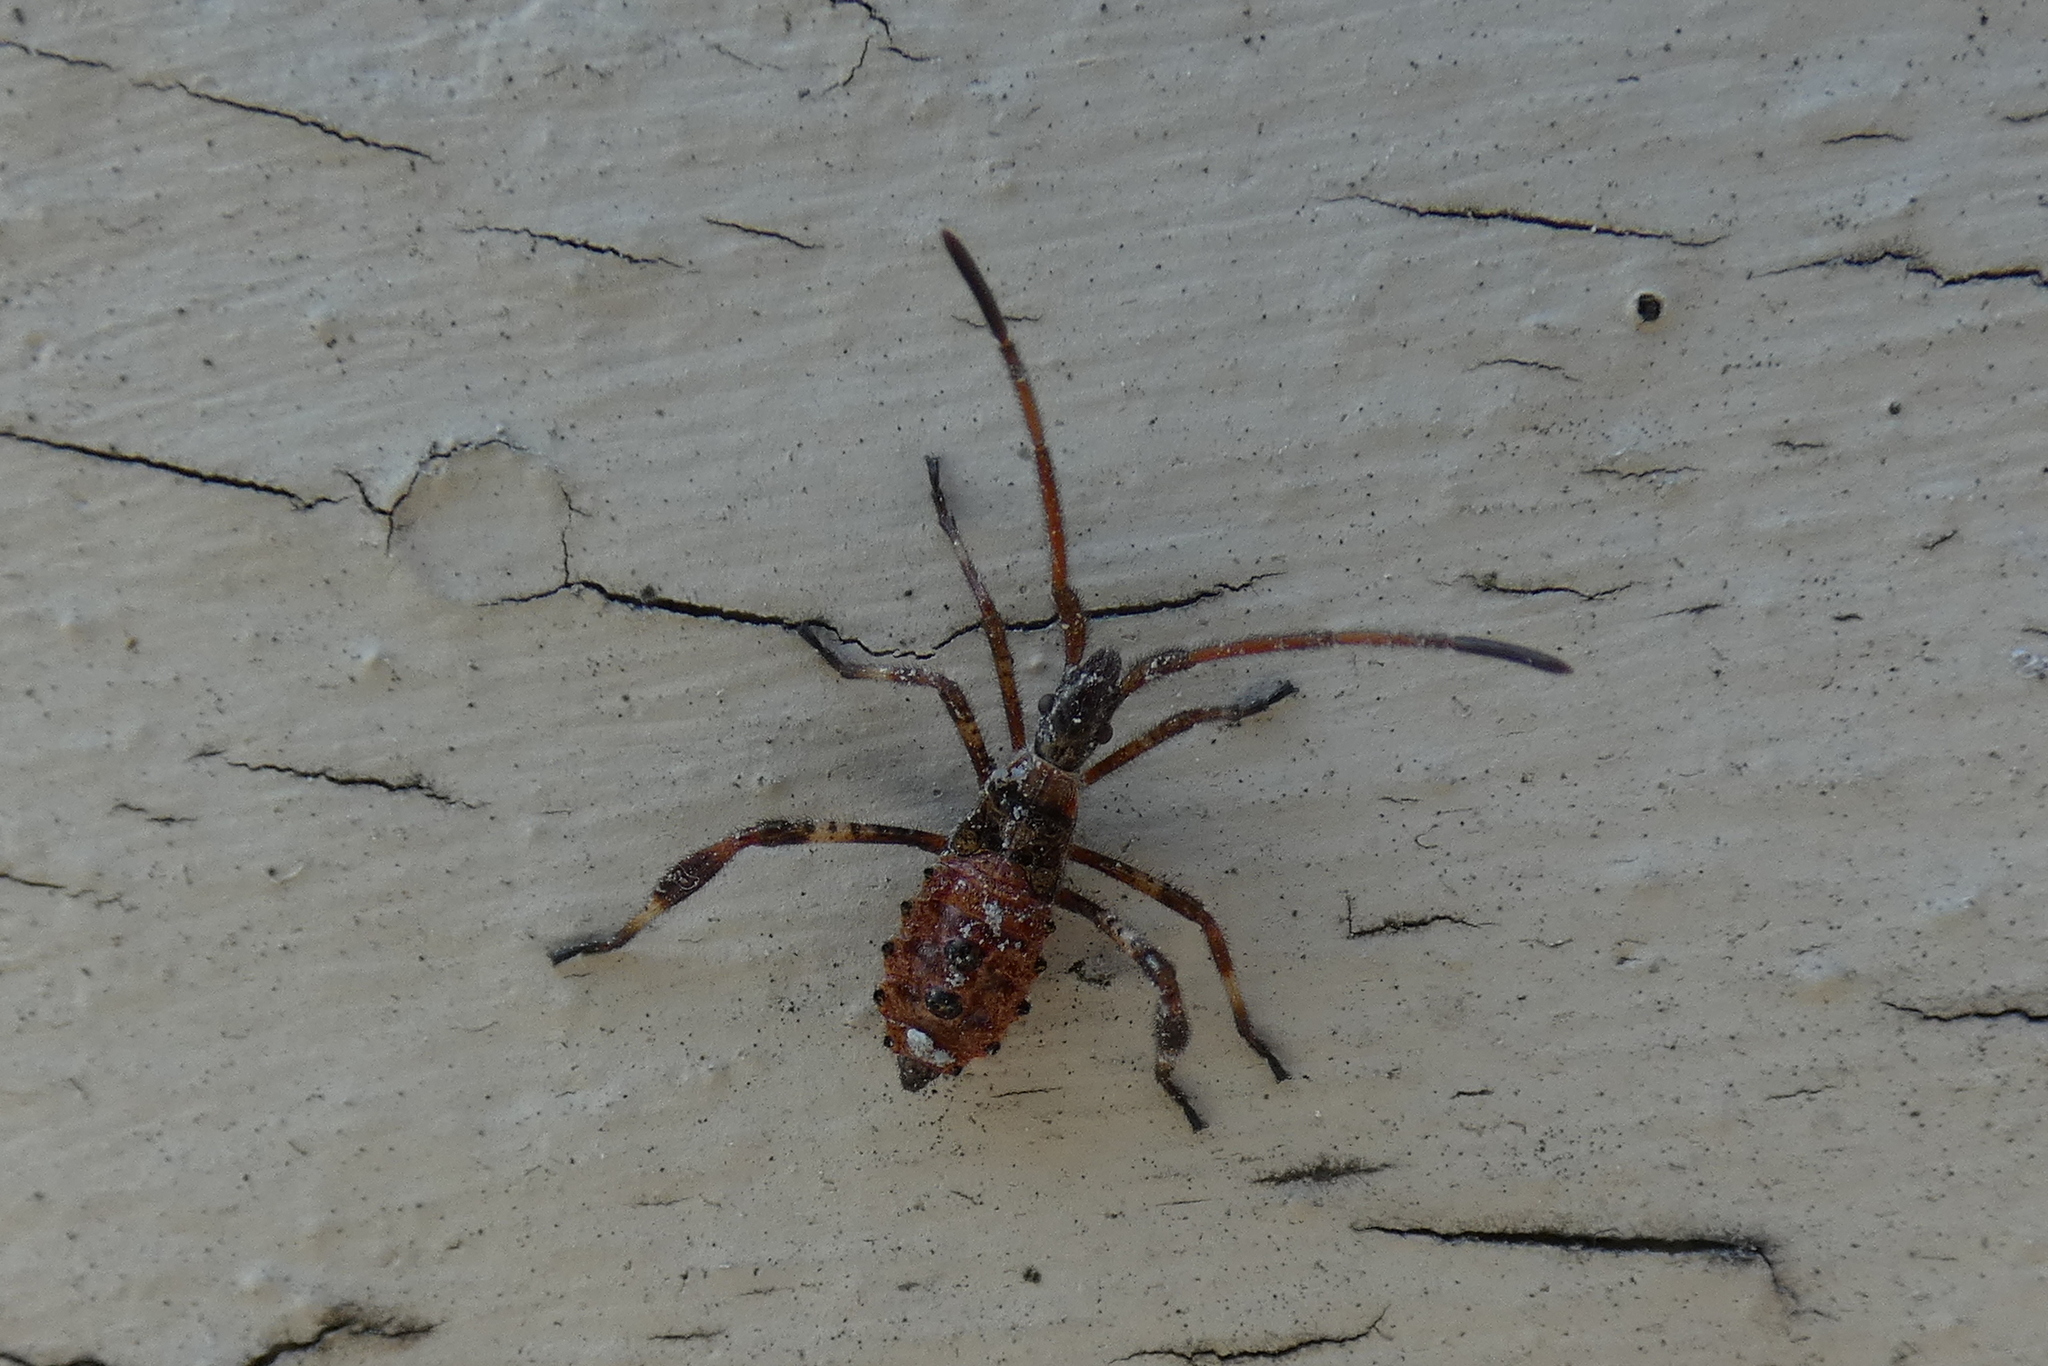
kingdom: Animalia
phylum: Arthropoda
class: Insecta
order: Hemiptera
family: Coreidae
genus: Leptoglossus
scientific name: Leptoglossus occidentalis
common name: Western conifer-seed bug
